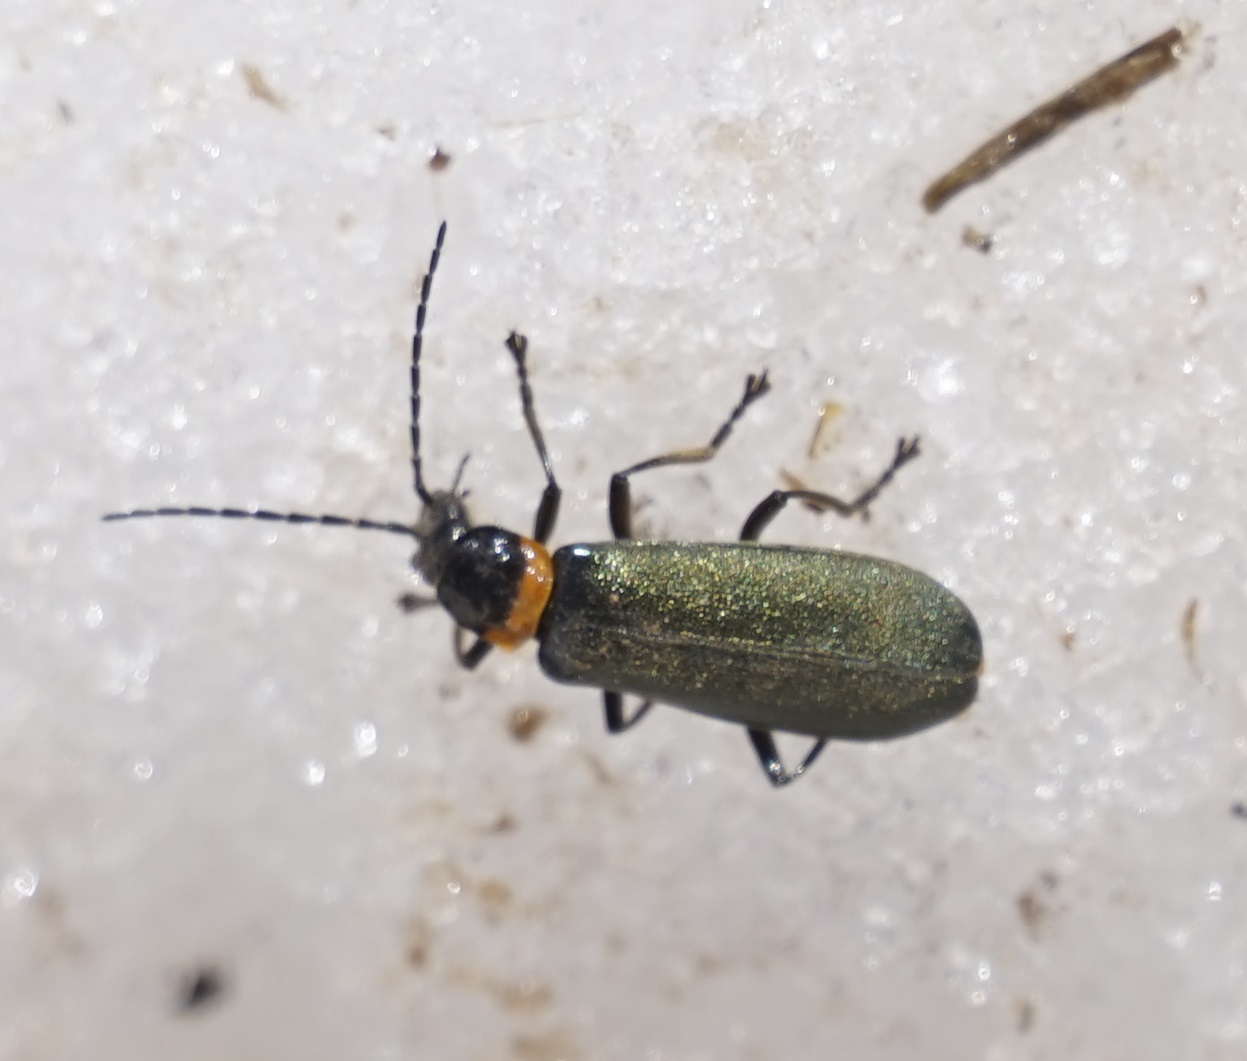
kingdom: Animalia
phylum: Arthropoda
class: Insecta
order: Coleoptera
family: Cantharidae
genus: Chauliognathus
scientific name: Chauliognathus
